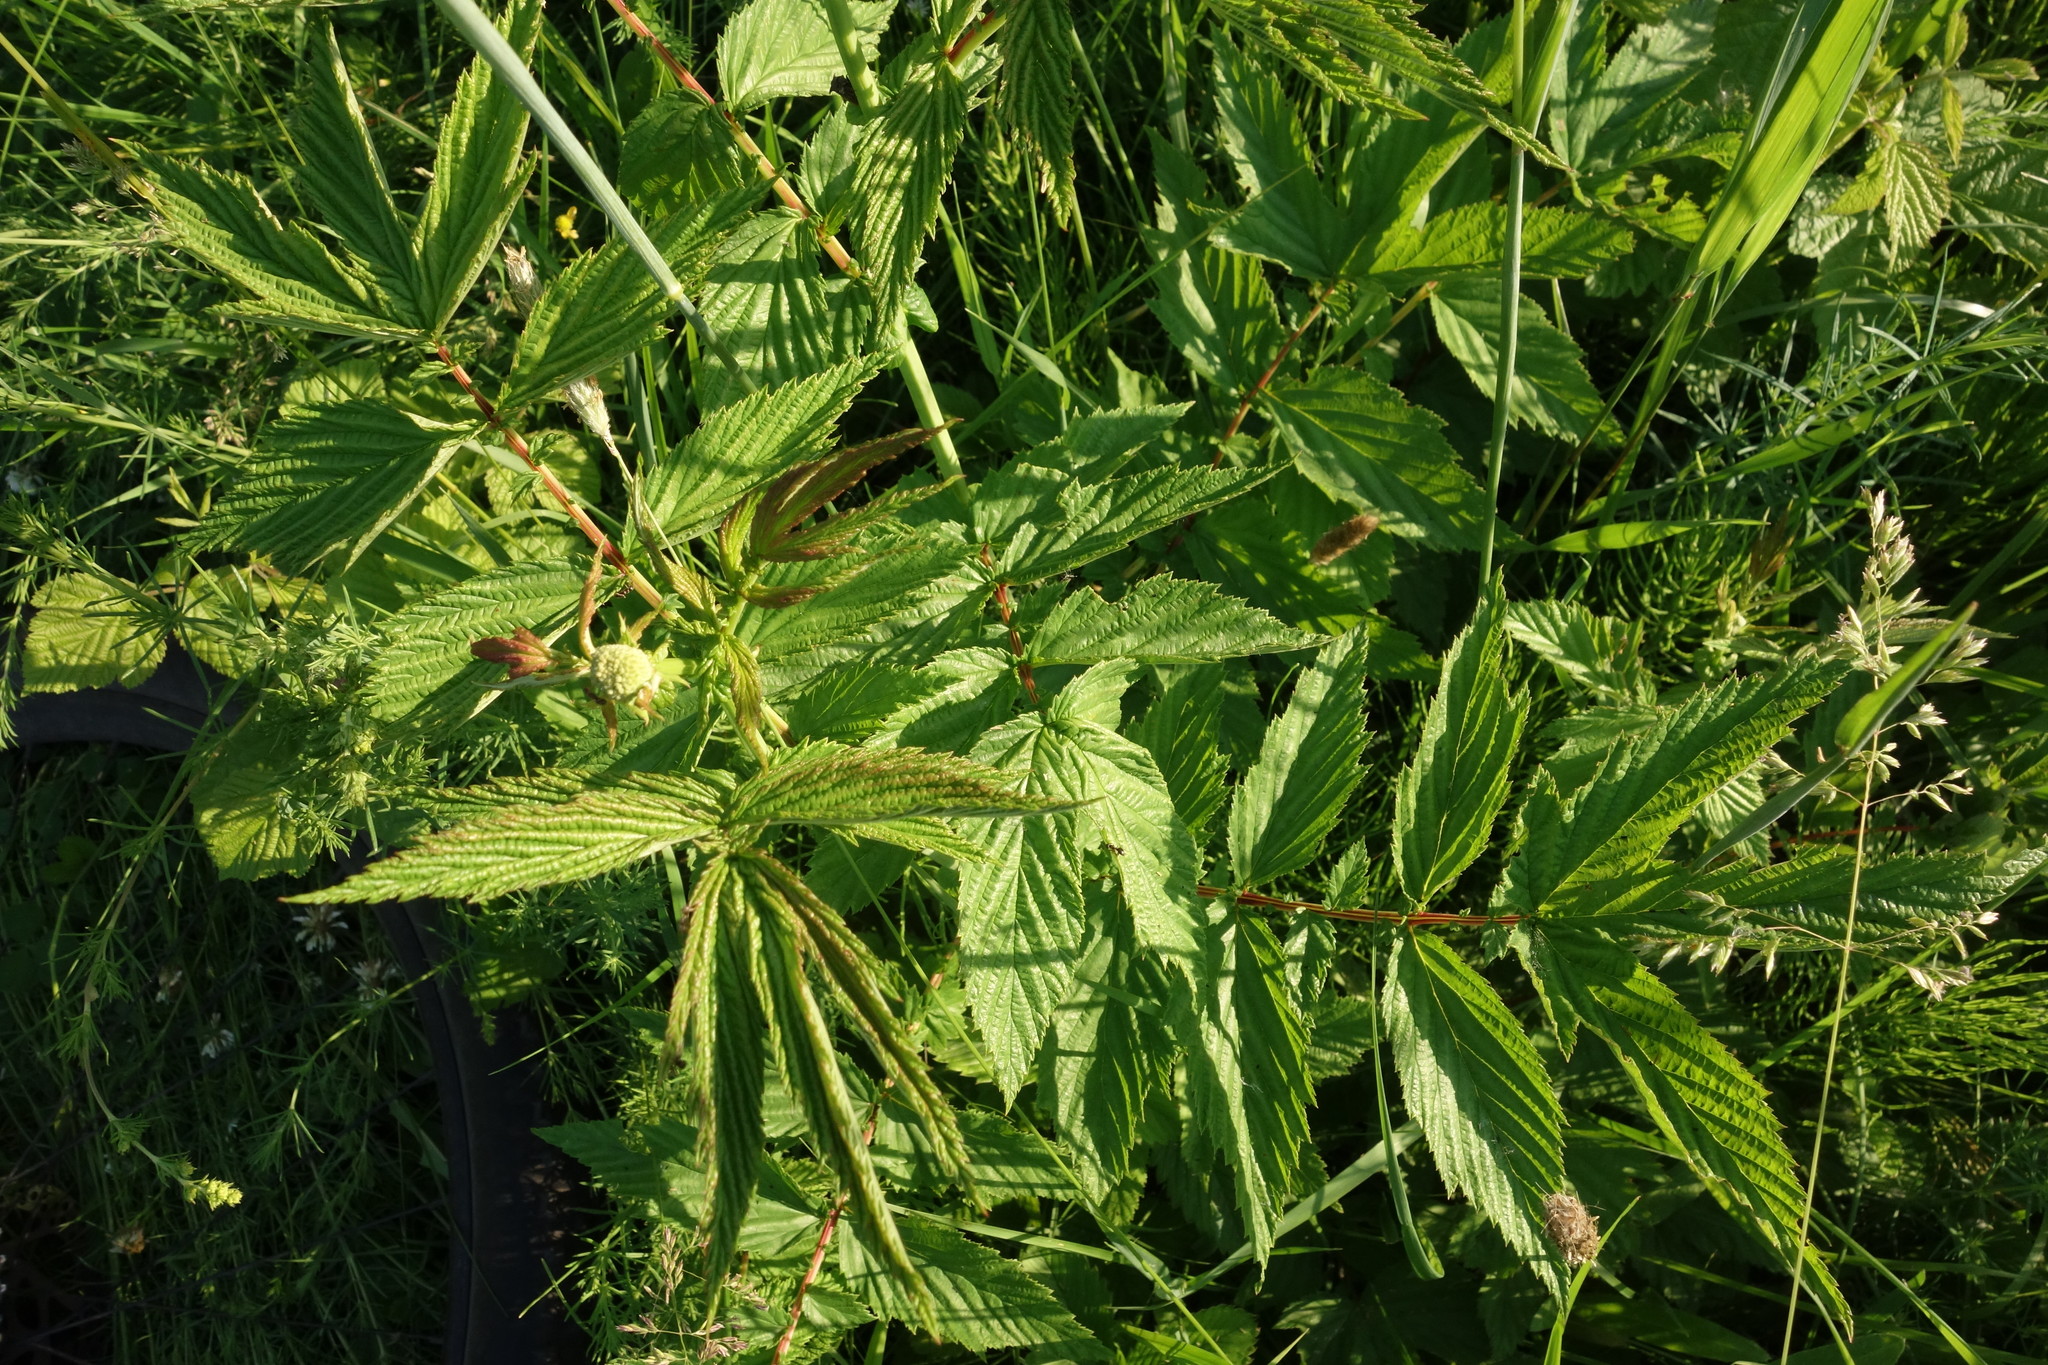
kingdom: Plantae
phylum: Tracheophyta
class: Magnoliopsida
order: Rosales
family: Rosaceae
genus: Filipendula
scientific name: Filipendula ulmaria
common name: Meadowsweet
